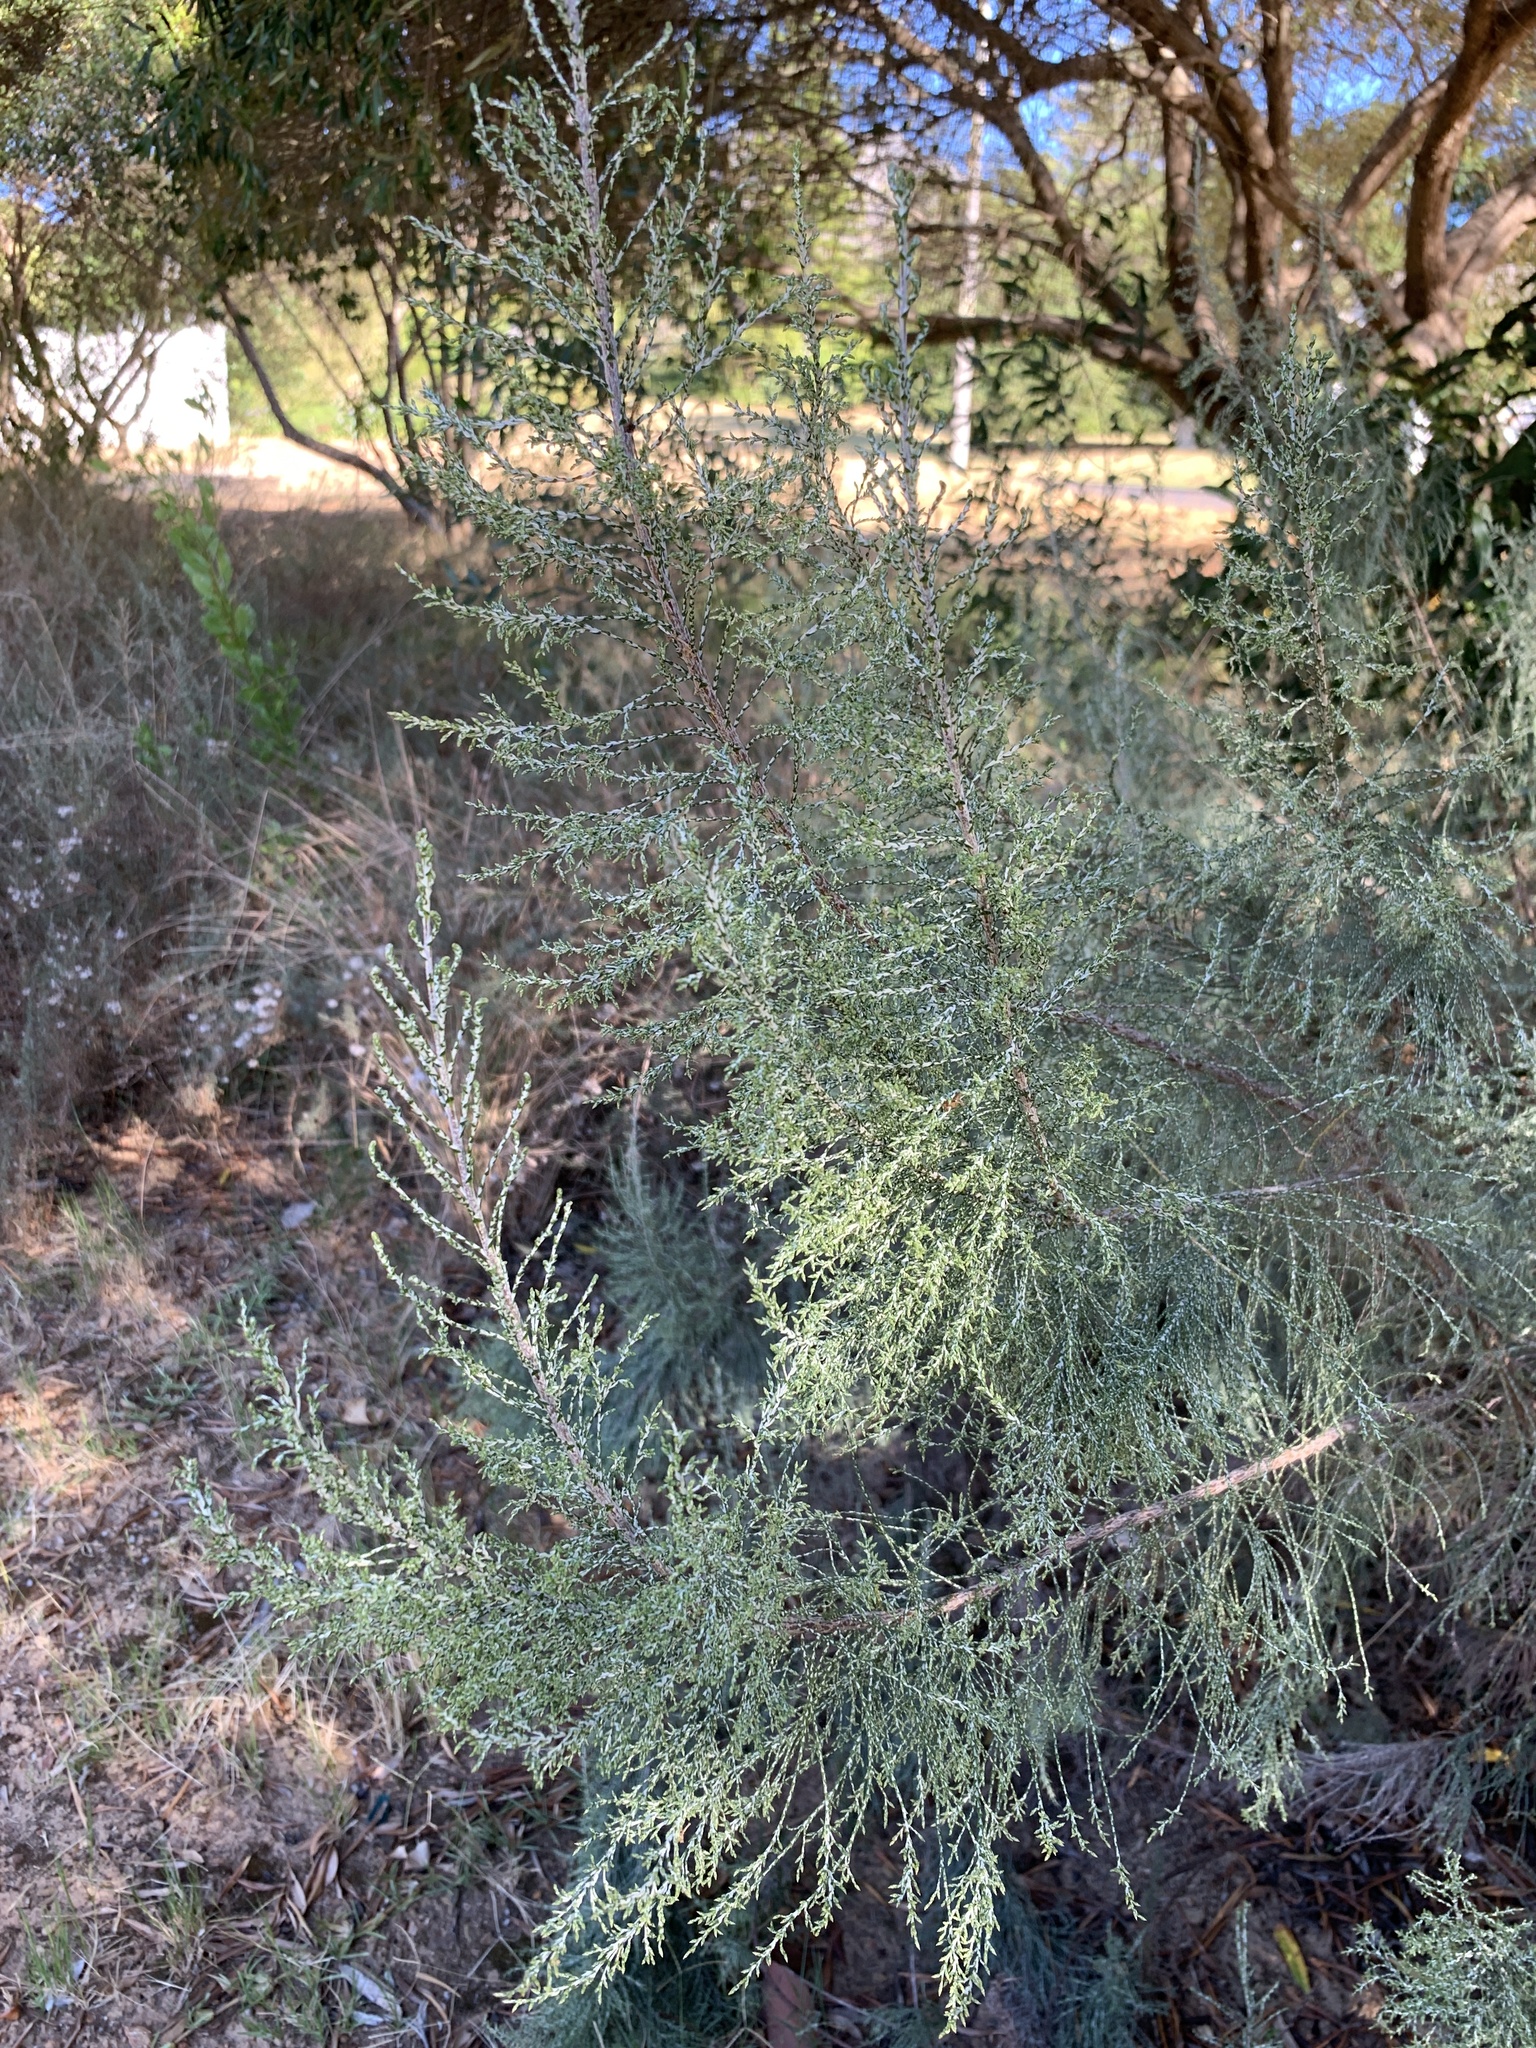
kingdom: Plantae
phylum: Tracheophyta
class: Magnoliopsida
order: Asterales
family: Asteraceae
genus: Dicerothamnus
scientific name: Dicerothamnus rhinocerotis
